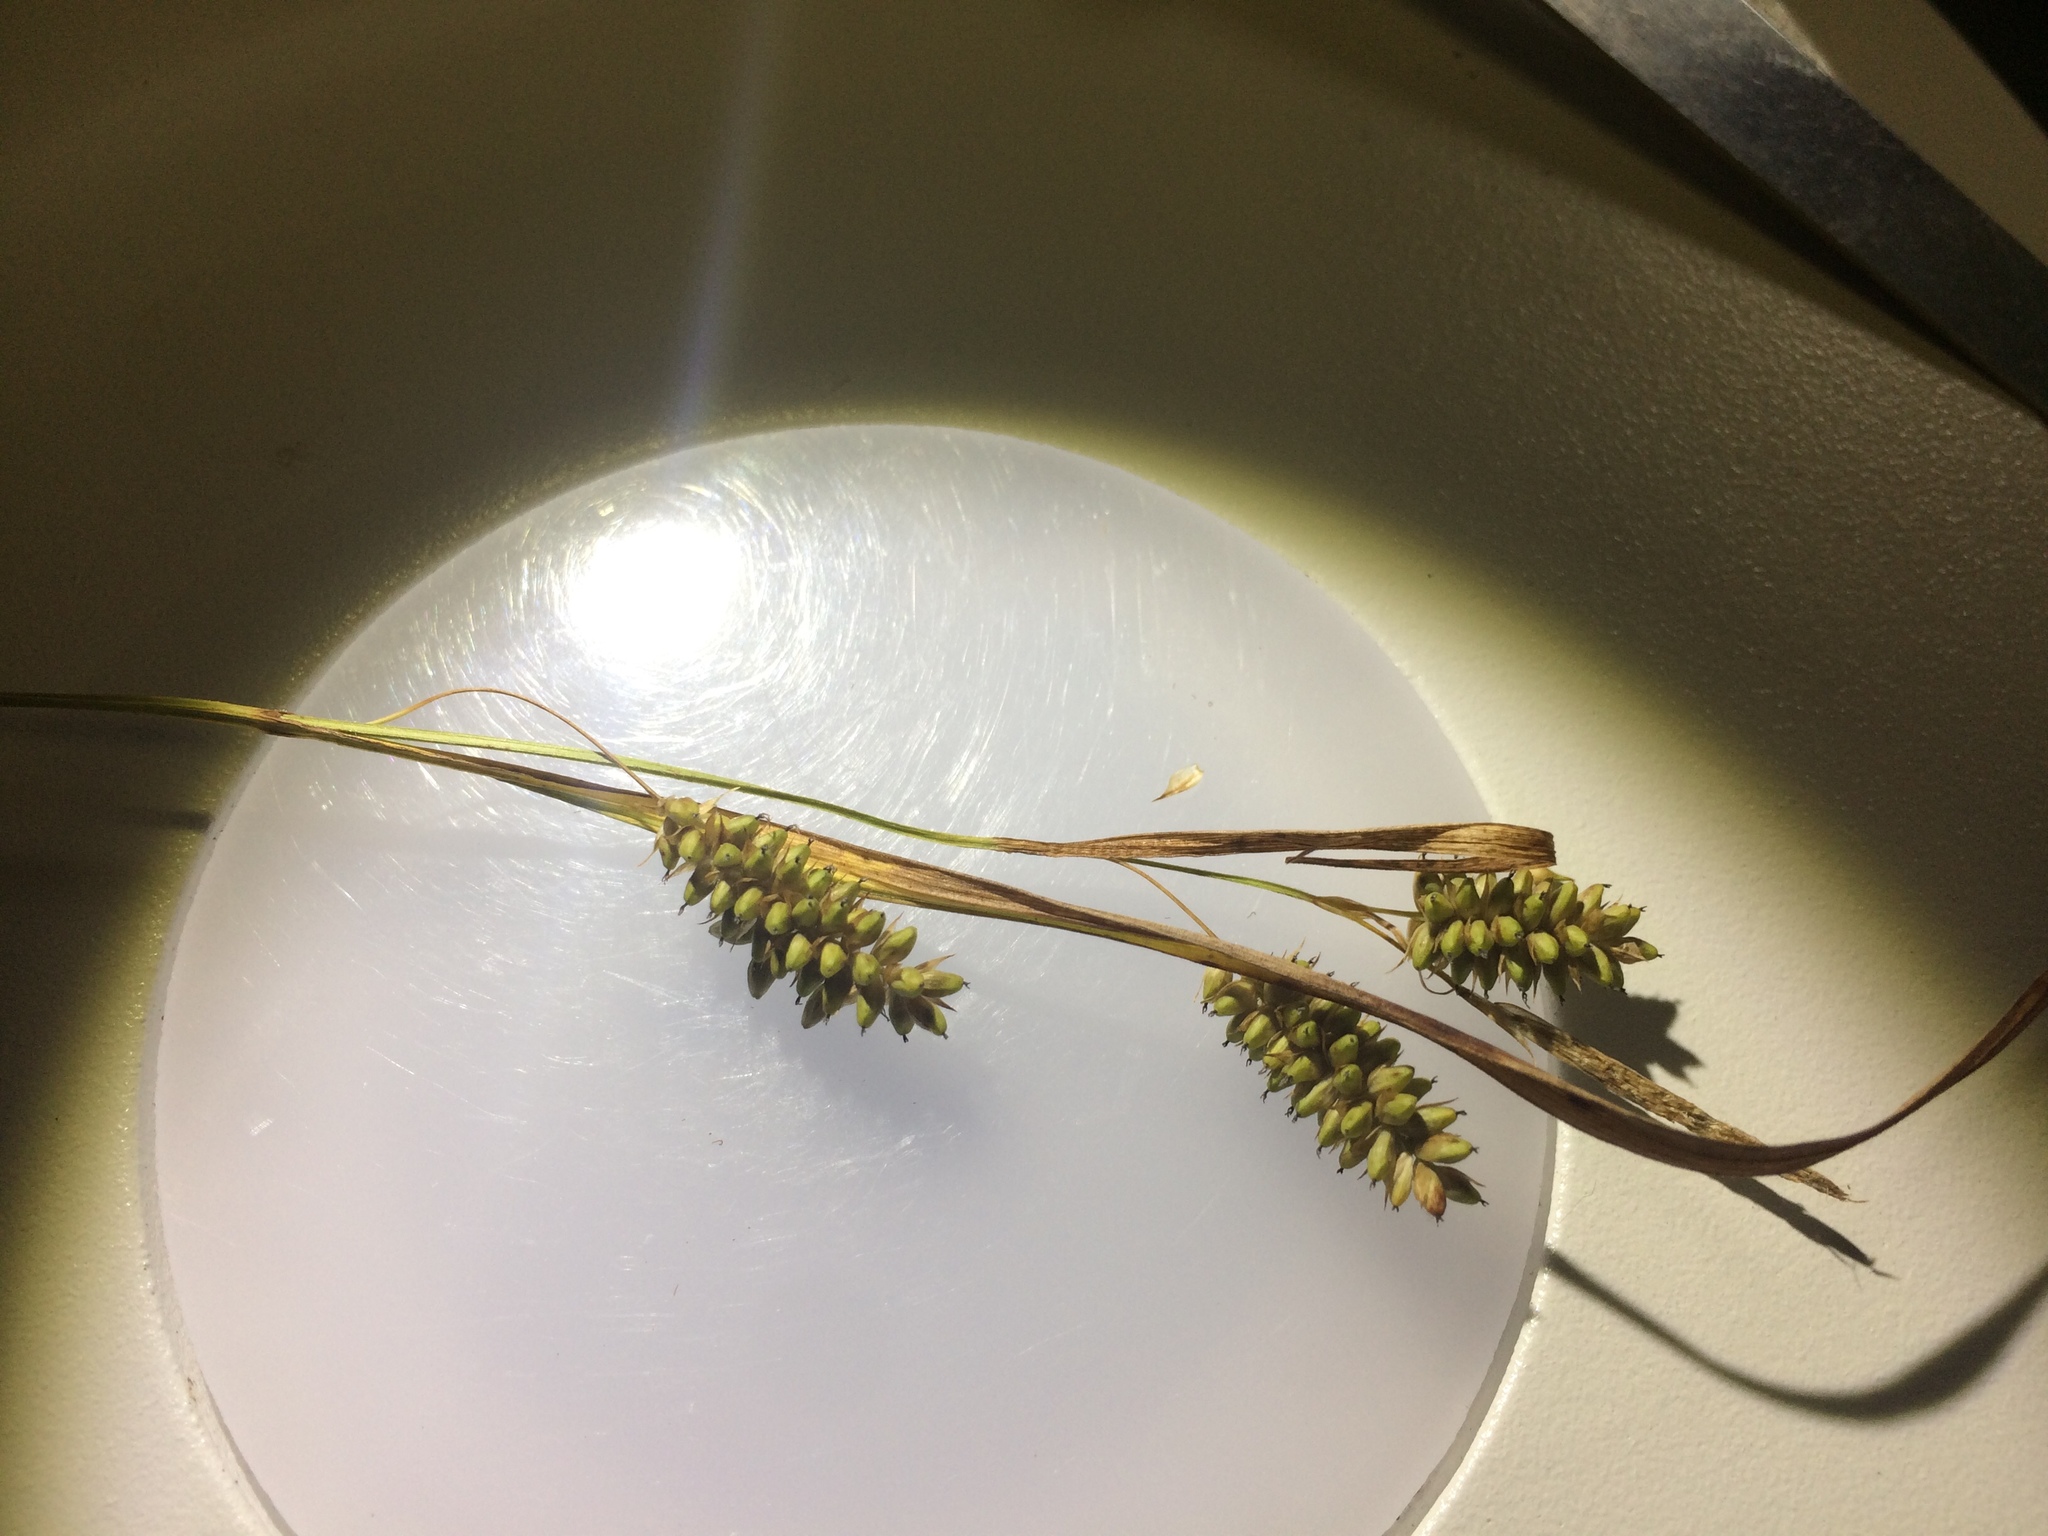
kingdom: Plantae
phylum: Tracheophyta
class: Liliopsida
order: Poales
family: Cyperaceae
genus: Carex
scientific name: Carex pallescens
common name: Pale sedge
